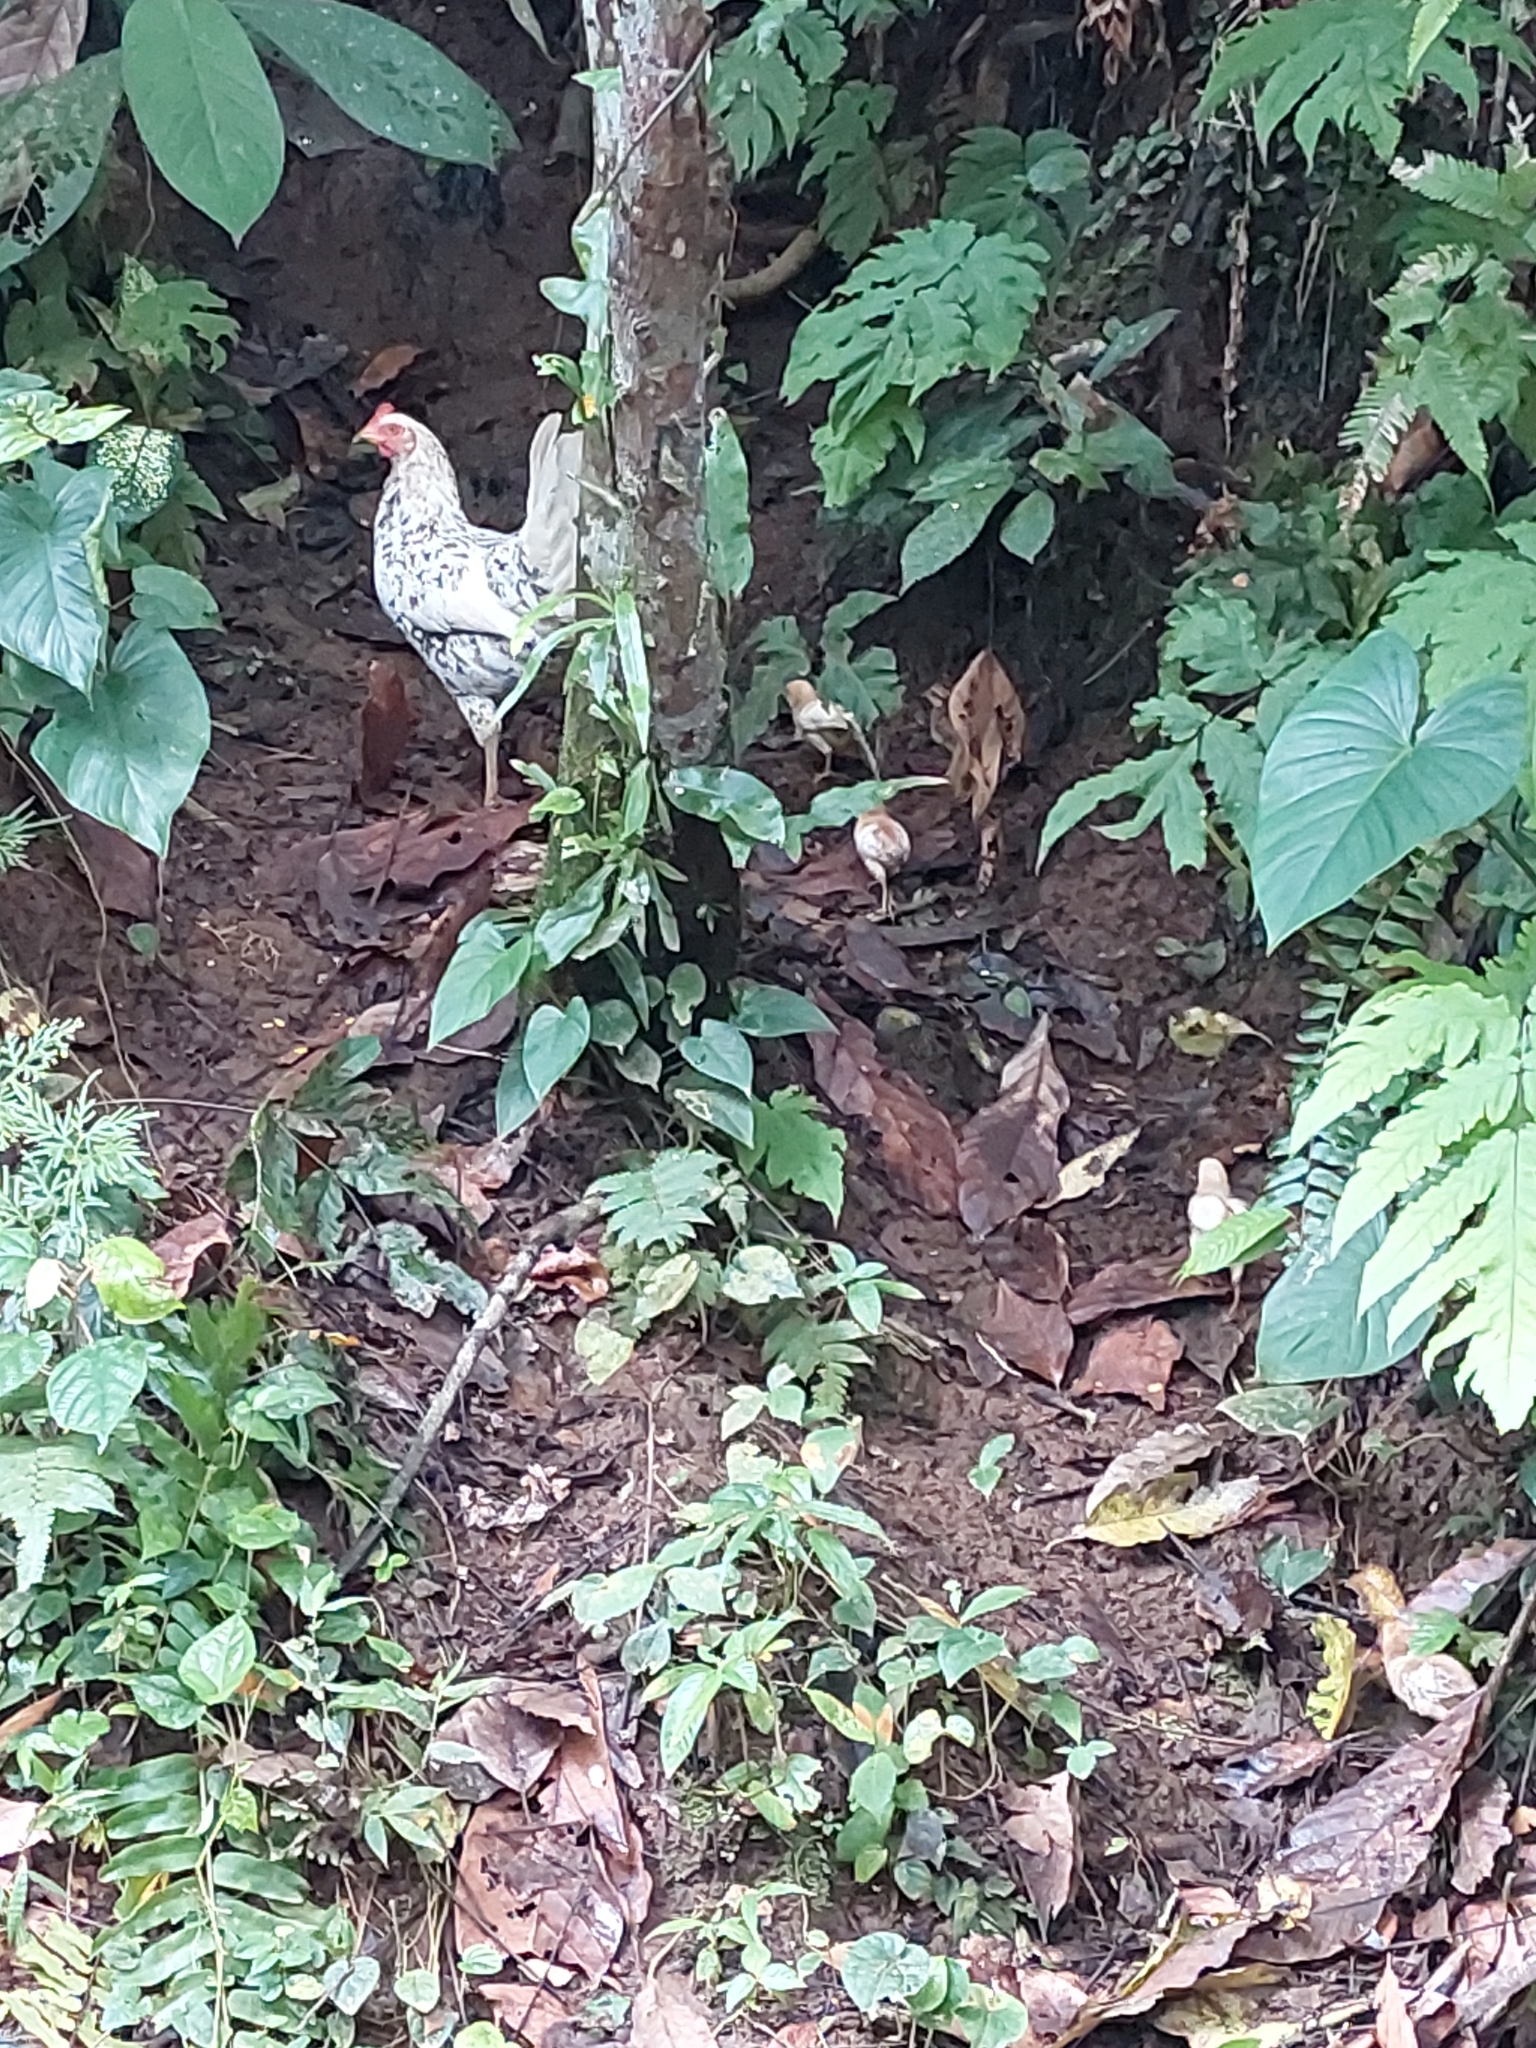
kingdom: Animalia
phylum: Chordata
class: Aves
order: Galliformes
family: Phasianidae
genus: Gallus
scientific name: Gallus gallus
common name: Red junglefowl
